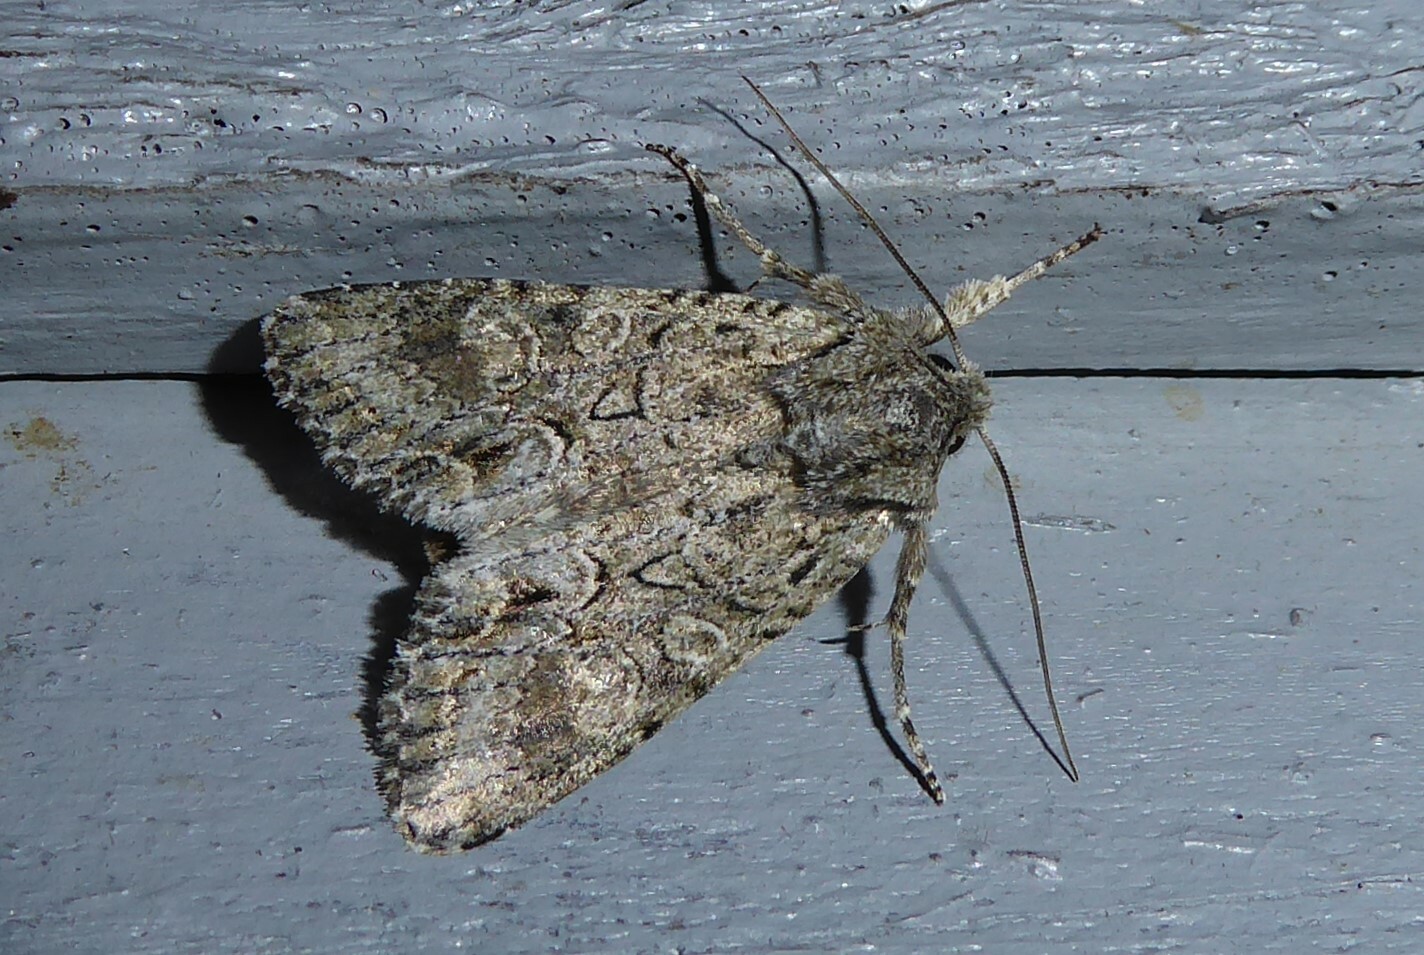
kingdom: Animalia
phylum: Arthropoda
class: Insecta
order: Lepidoptera
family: Noctuidae
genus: Ichneutica
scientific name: Ichneutica mutans
